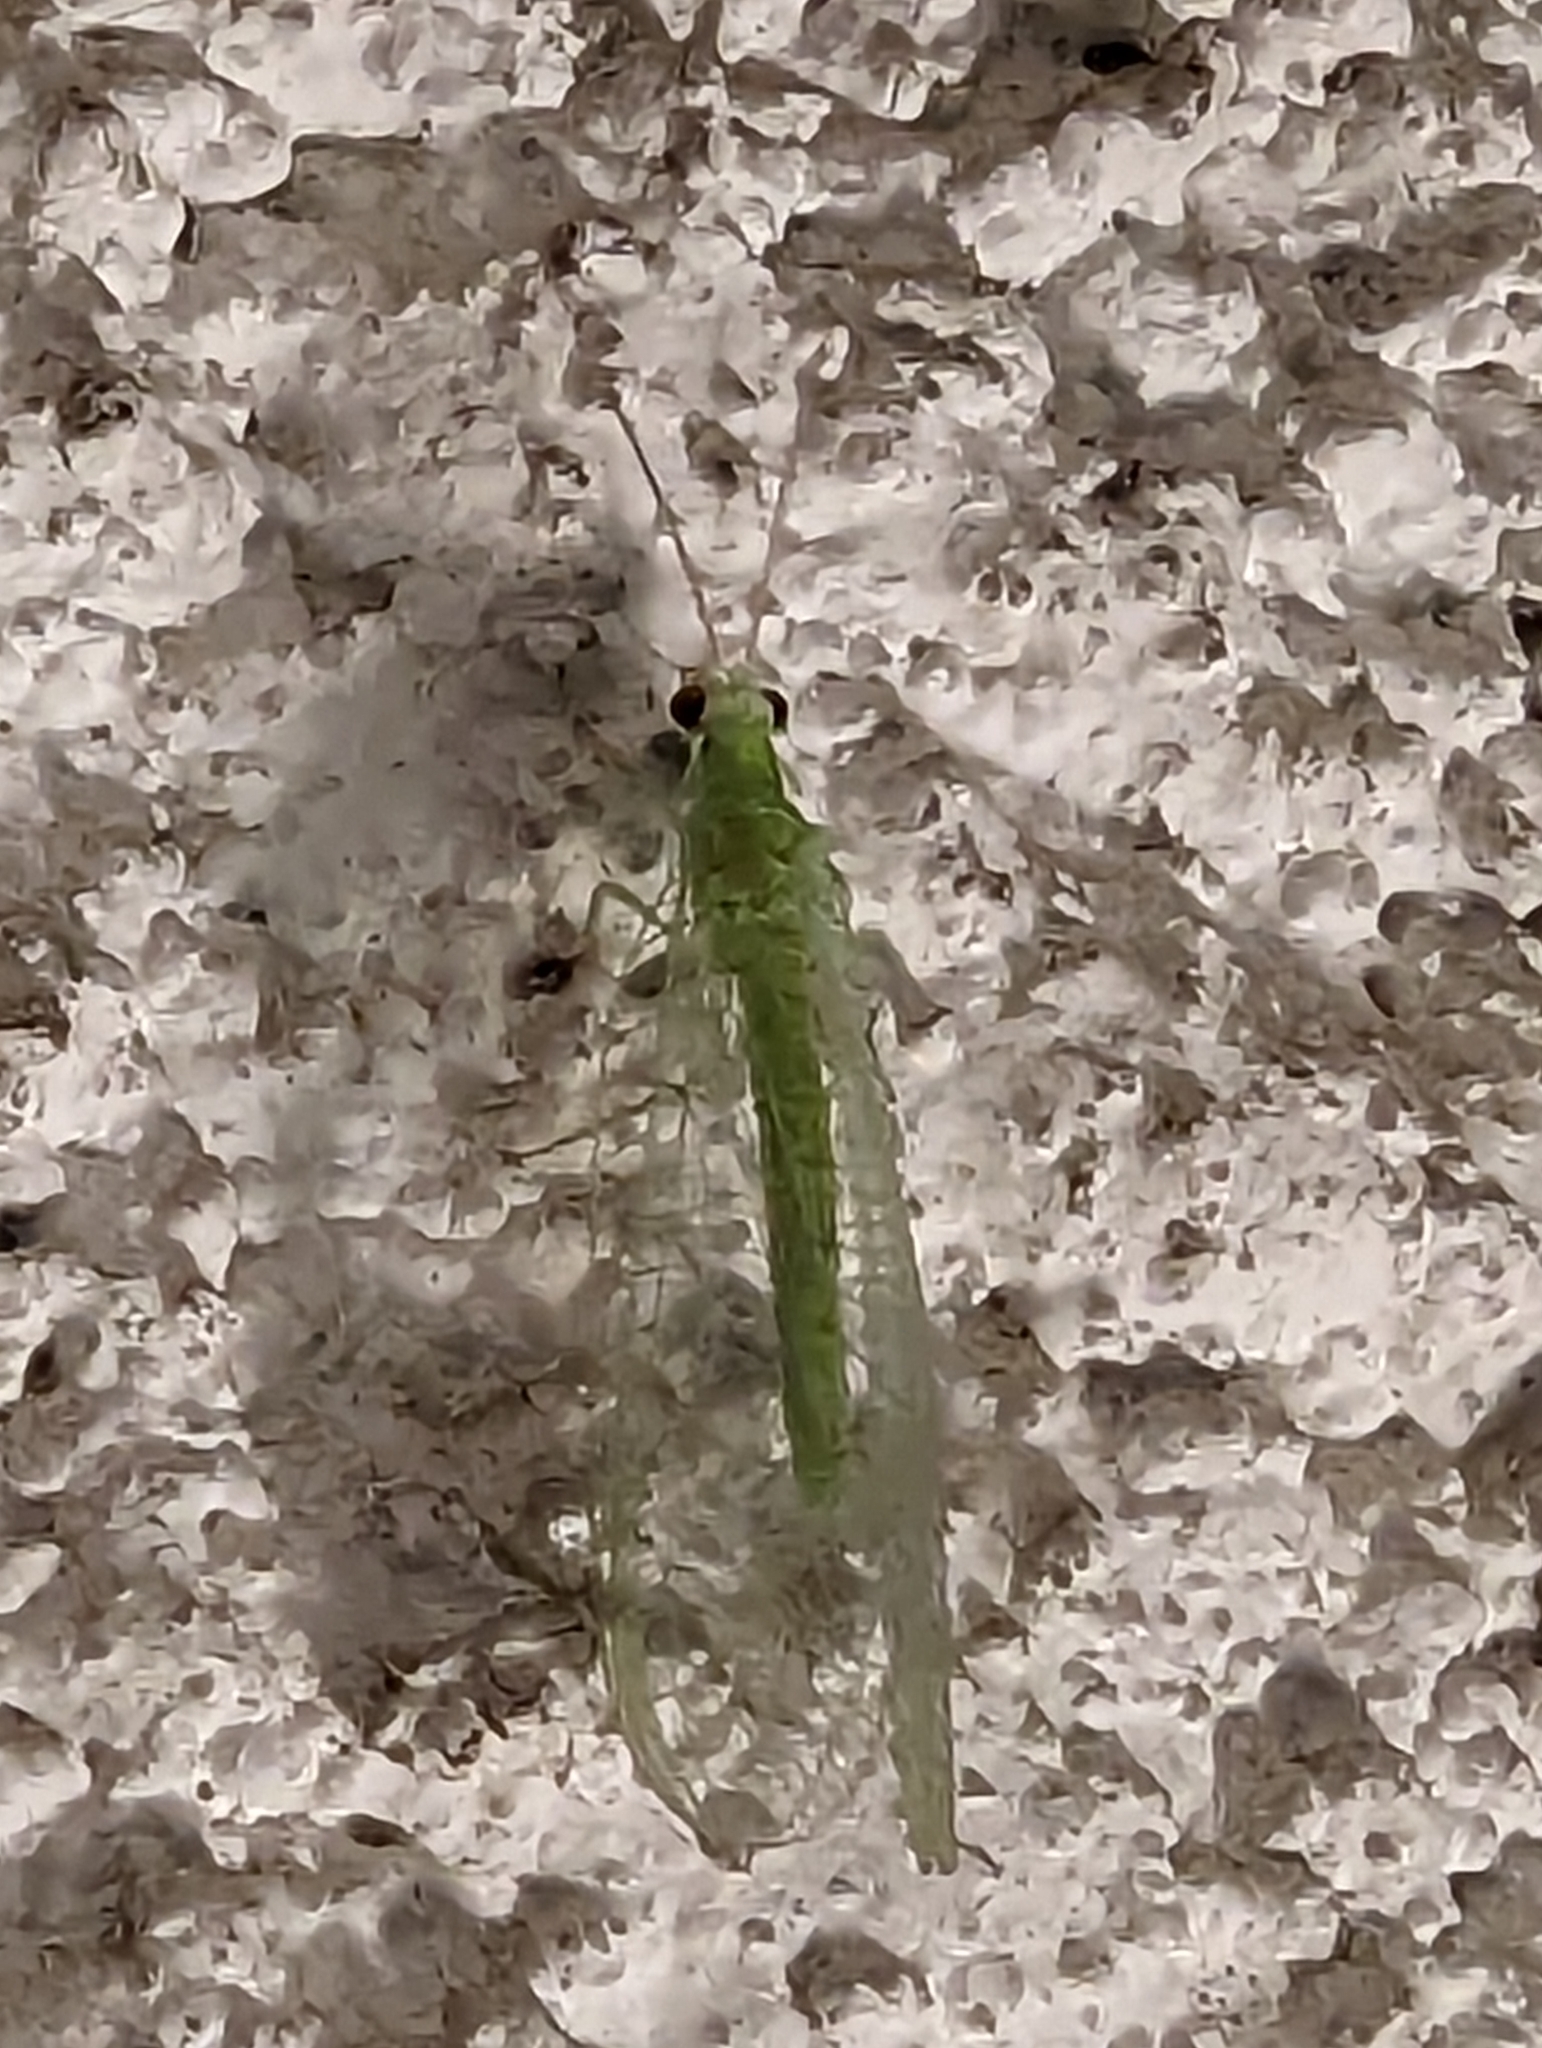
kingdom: Animalia
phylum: Arthropoda
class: Insecta
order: Neuroptera
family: Chrysopidae
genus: Chrysopa
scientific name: Chrysopa nigricornis
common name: Black-horned green lacewing
